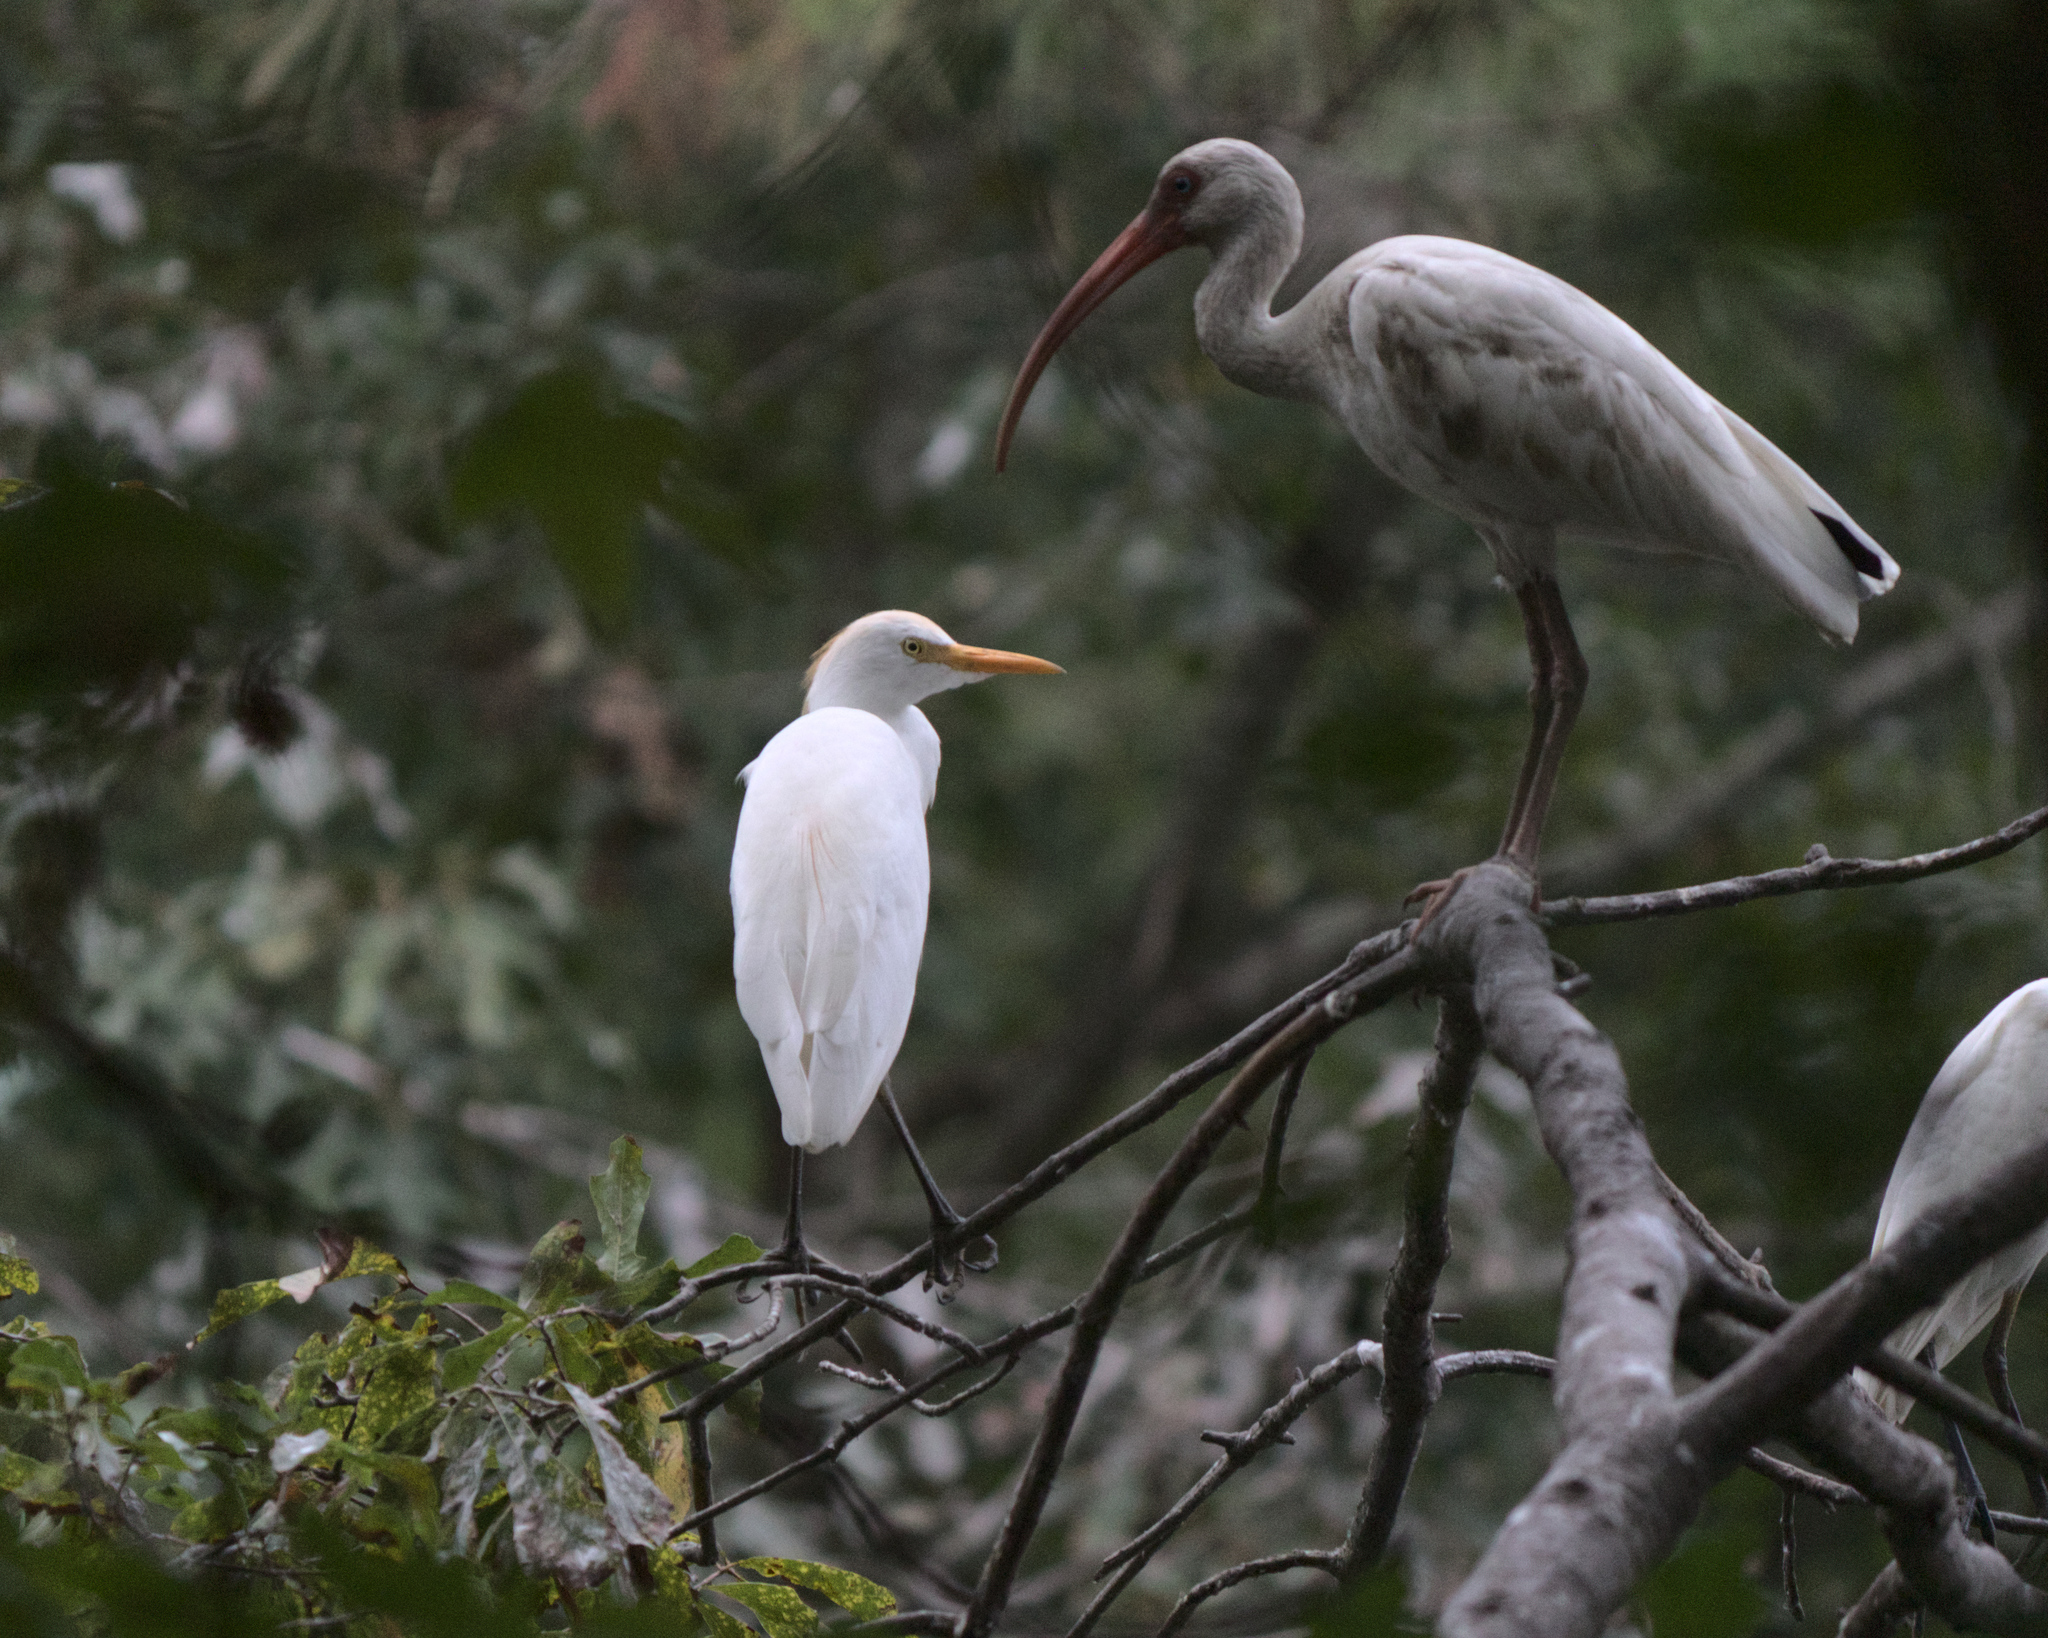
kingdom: Animalia
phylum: Chordata
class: Aves
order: Pelecaniformes
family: Ardeidae
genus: Bubulcus
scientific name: Bubulcus ibis
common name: Cattle egret
